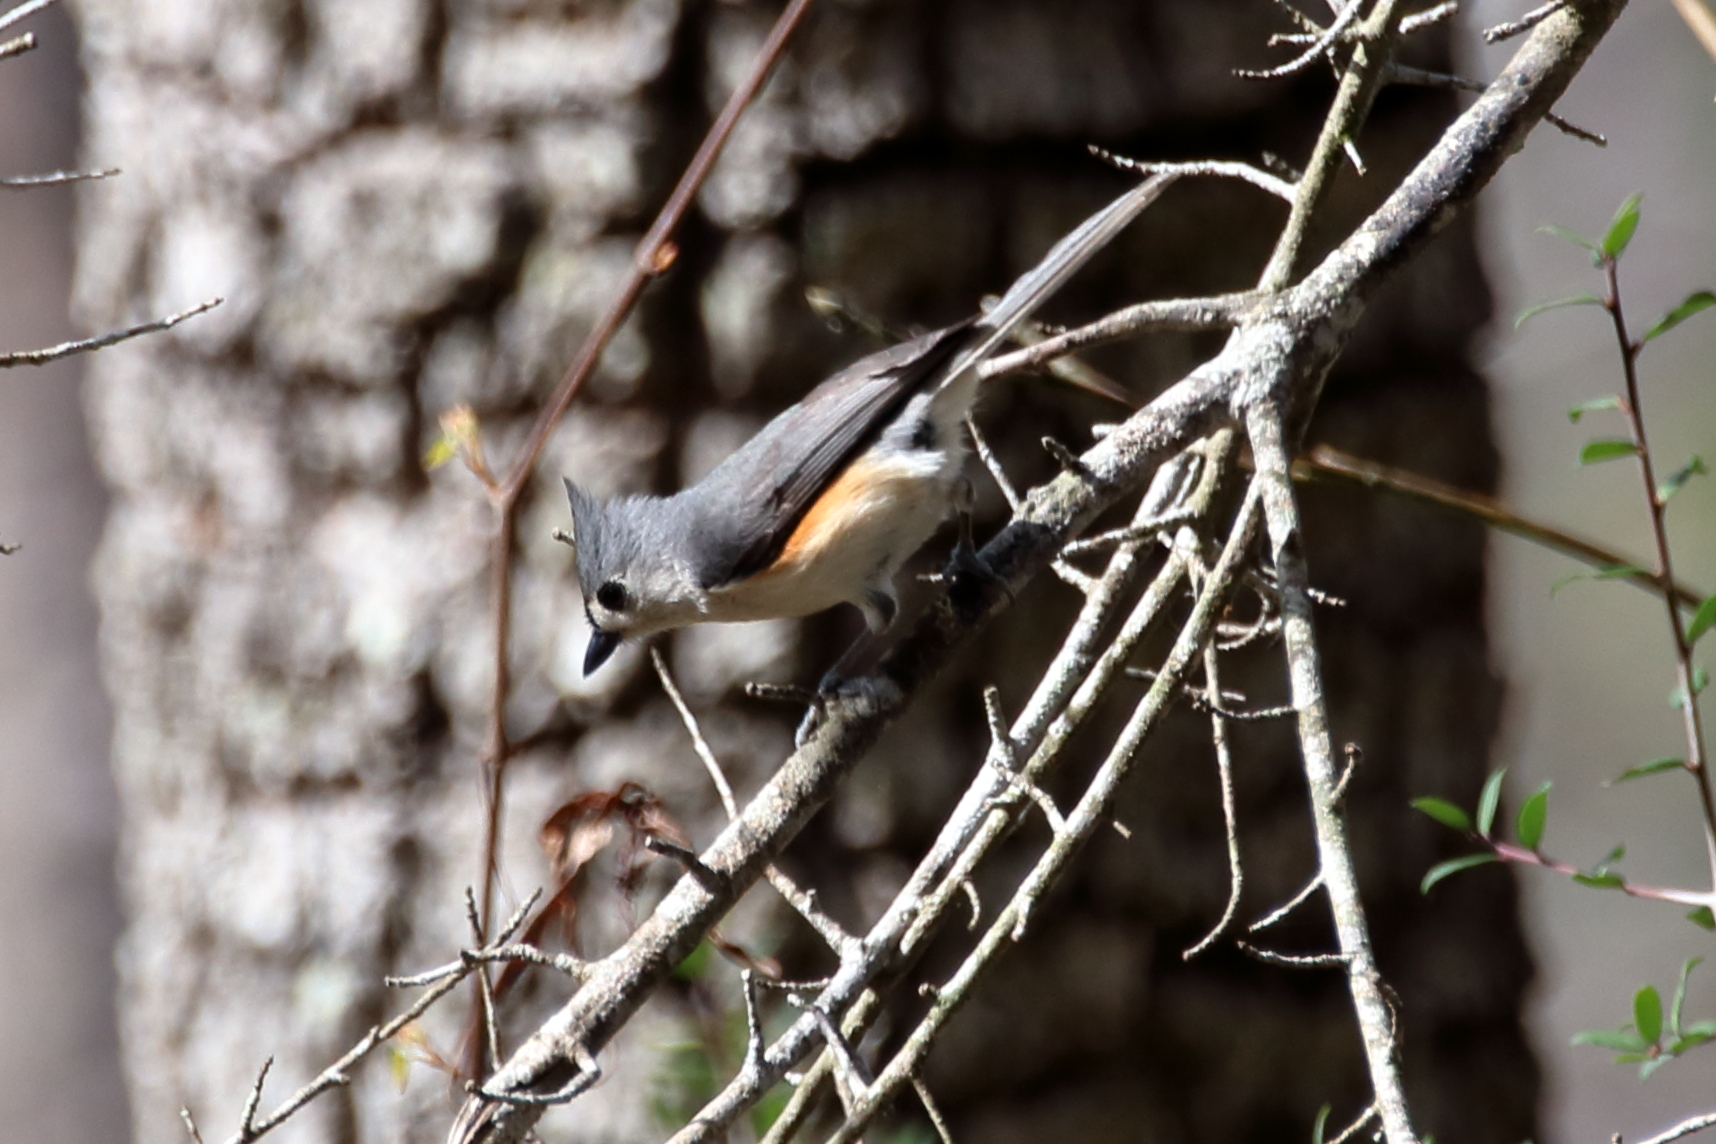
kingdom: Animalia
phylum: Chordata
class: Aves
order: Passeriformes
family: Paridae
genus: Baeolophus
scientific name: Baeolophus bicolor
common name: Tufted titmouse
